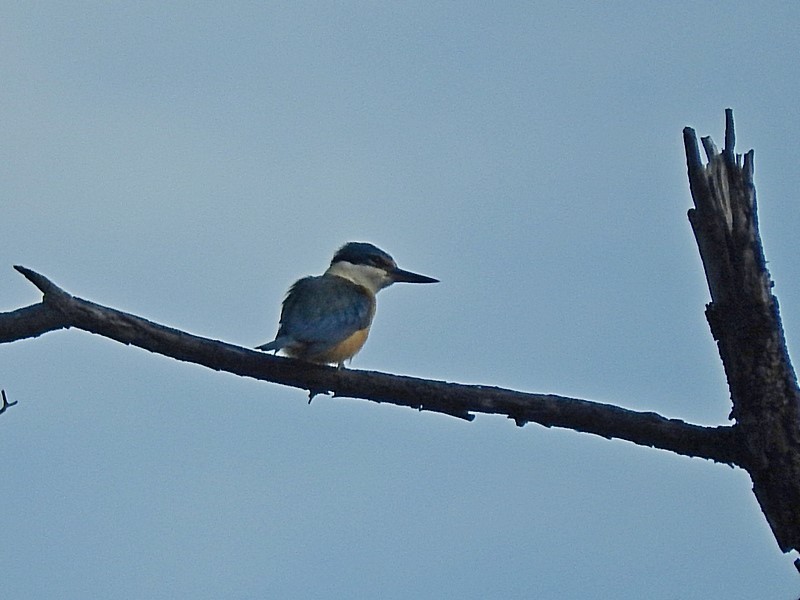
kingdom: Animalia
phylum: Chordata
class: Aves
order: Coraciiformes
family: Alcedinidae
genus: Todiramphus
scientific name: Todiramphus sanctus
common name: Sacred kingfisher
